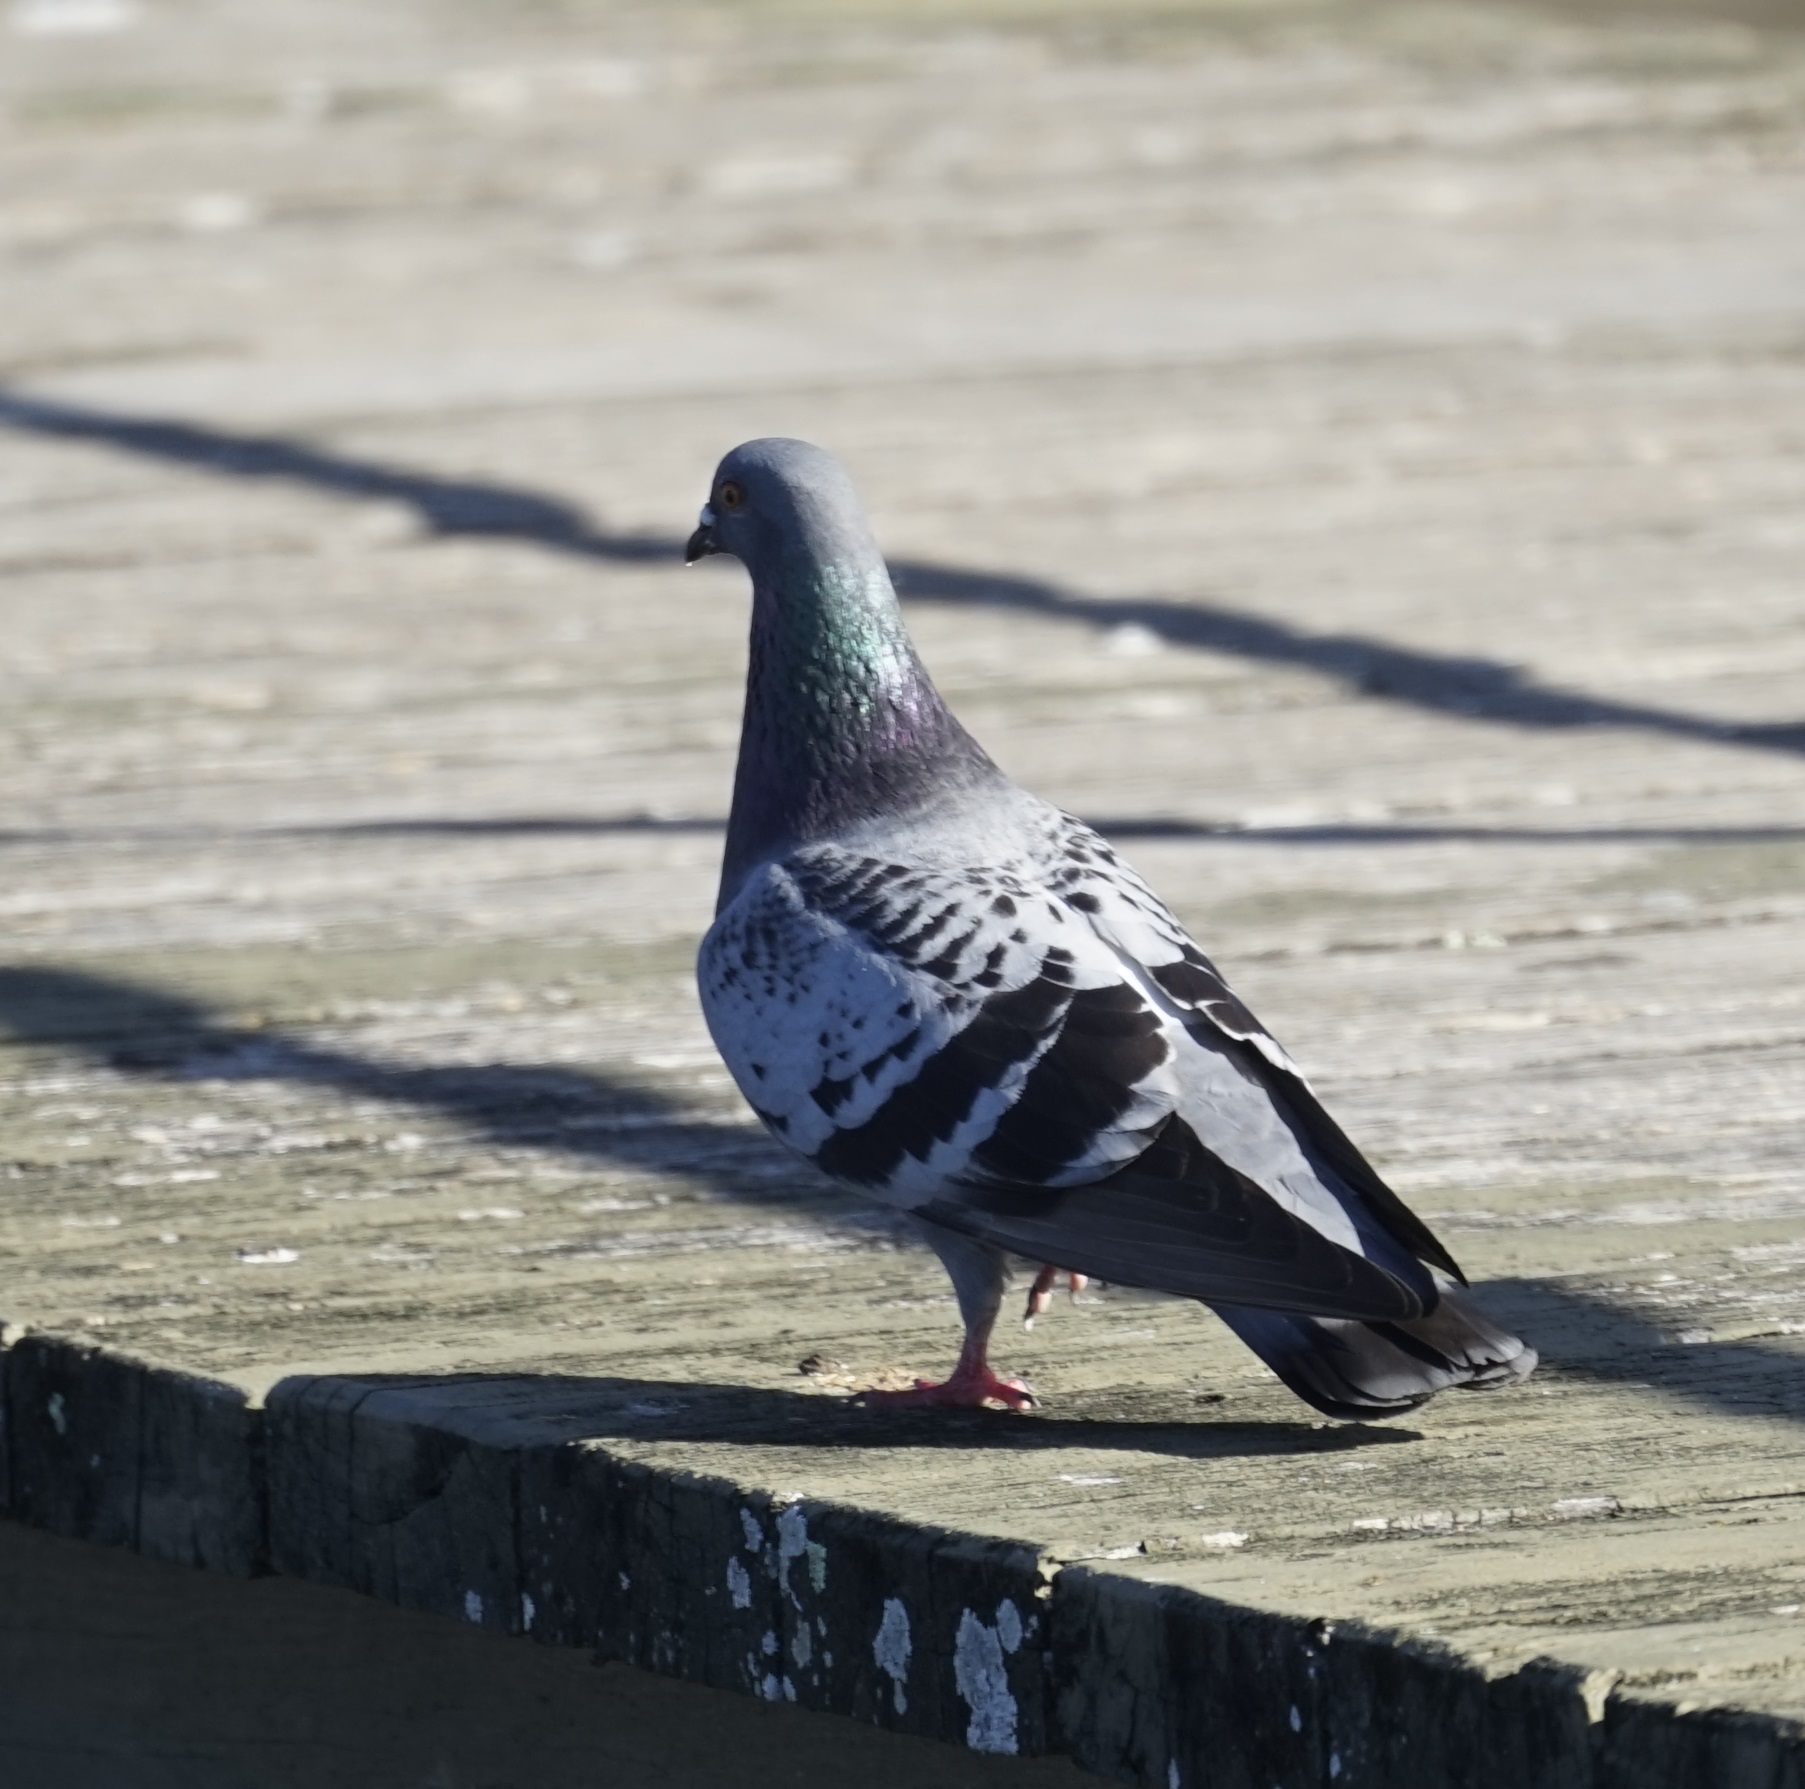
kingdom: Animalia
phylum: Chordata
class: Aves
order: Columbiformes
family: Columbidae
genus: Columba
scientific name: Columba livia
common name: Rock pigeon
